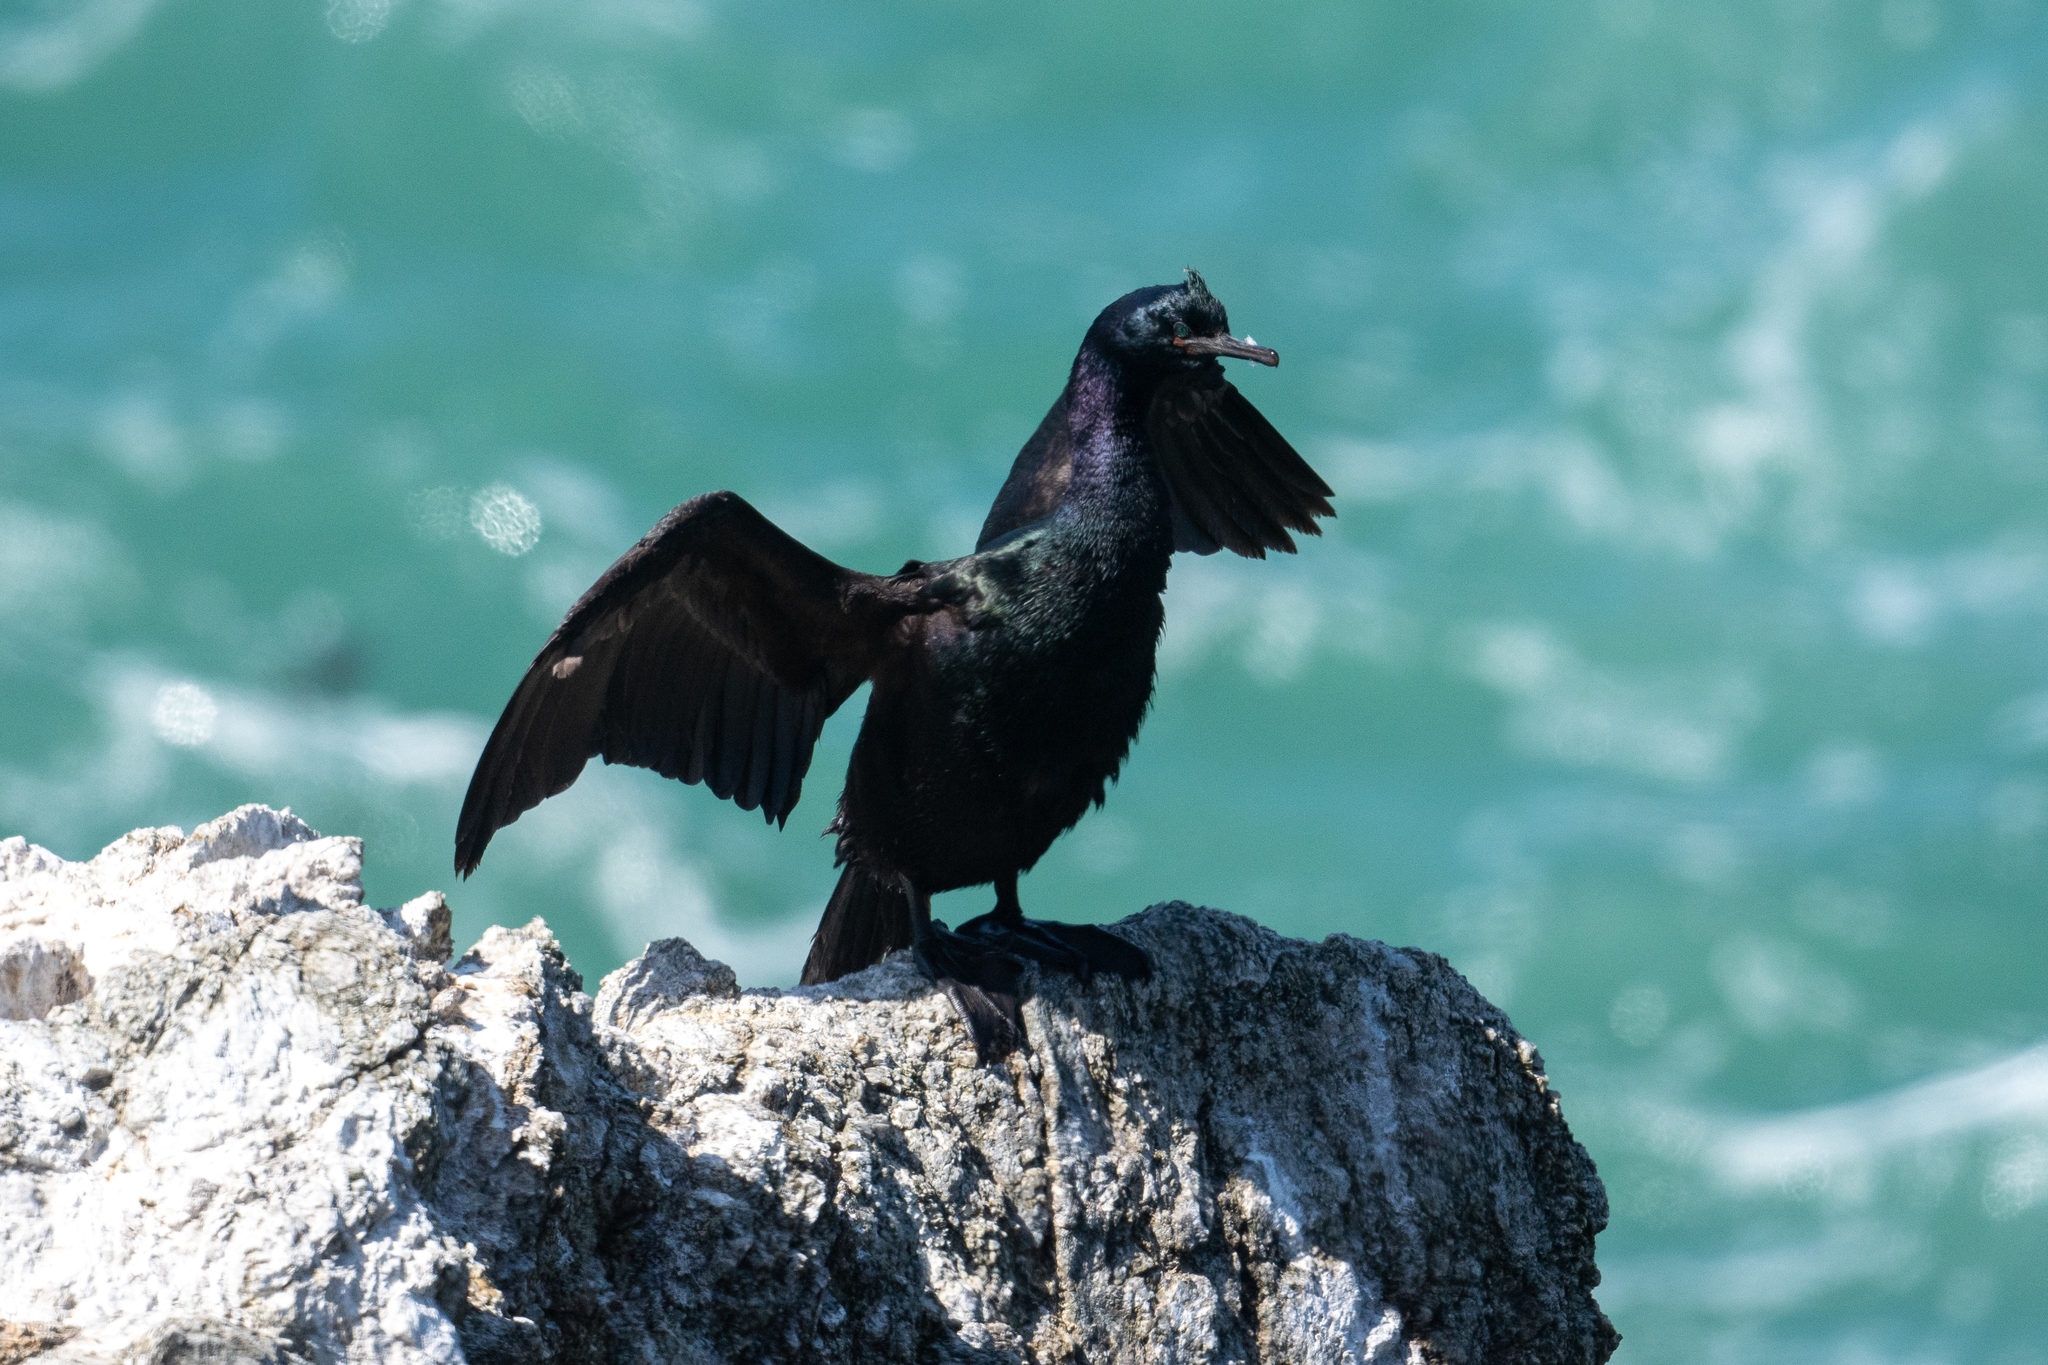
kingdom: Animalia
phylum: Chordata
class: Aves
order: Suliformes
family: Phalacrocoracidae
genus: Phalacrocorax
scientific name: Phalacrocorax pelagicus
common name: Pelagic cormorant
